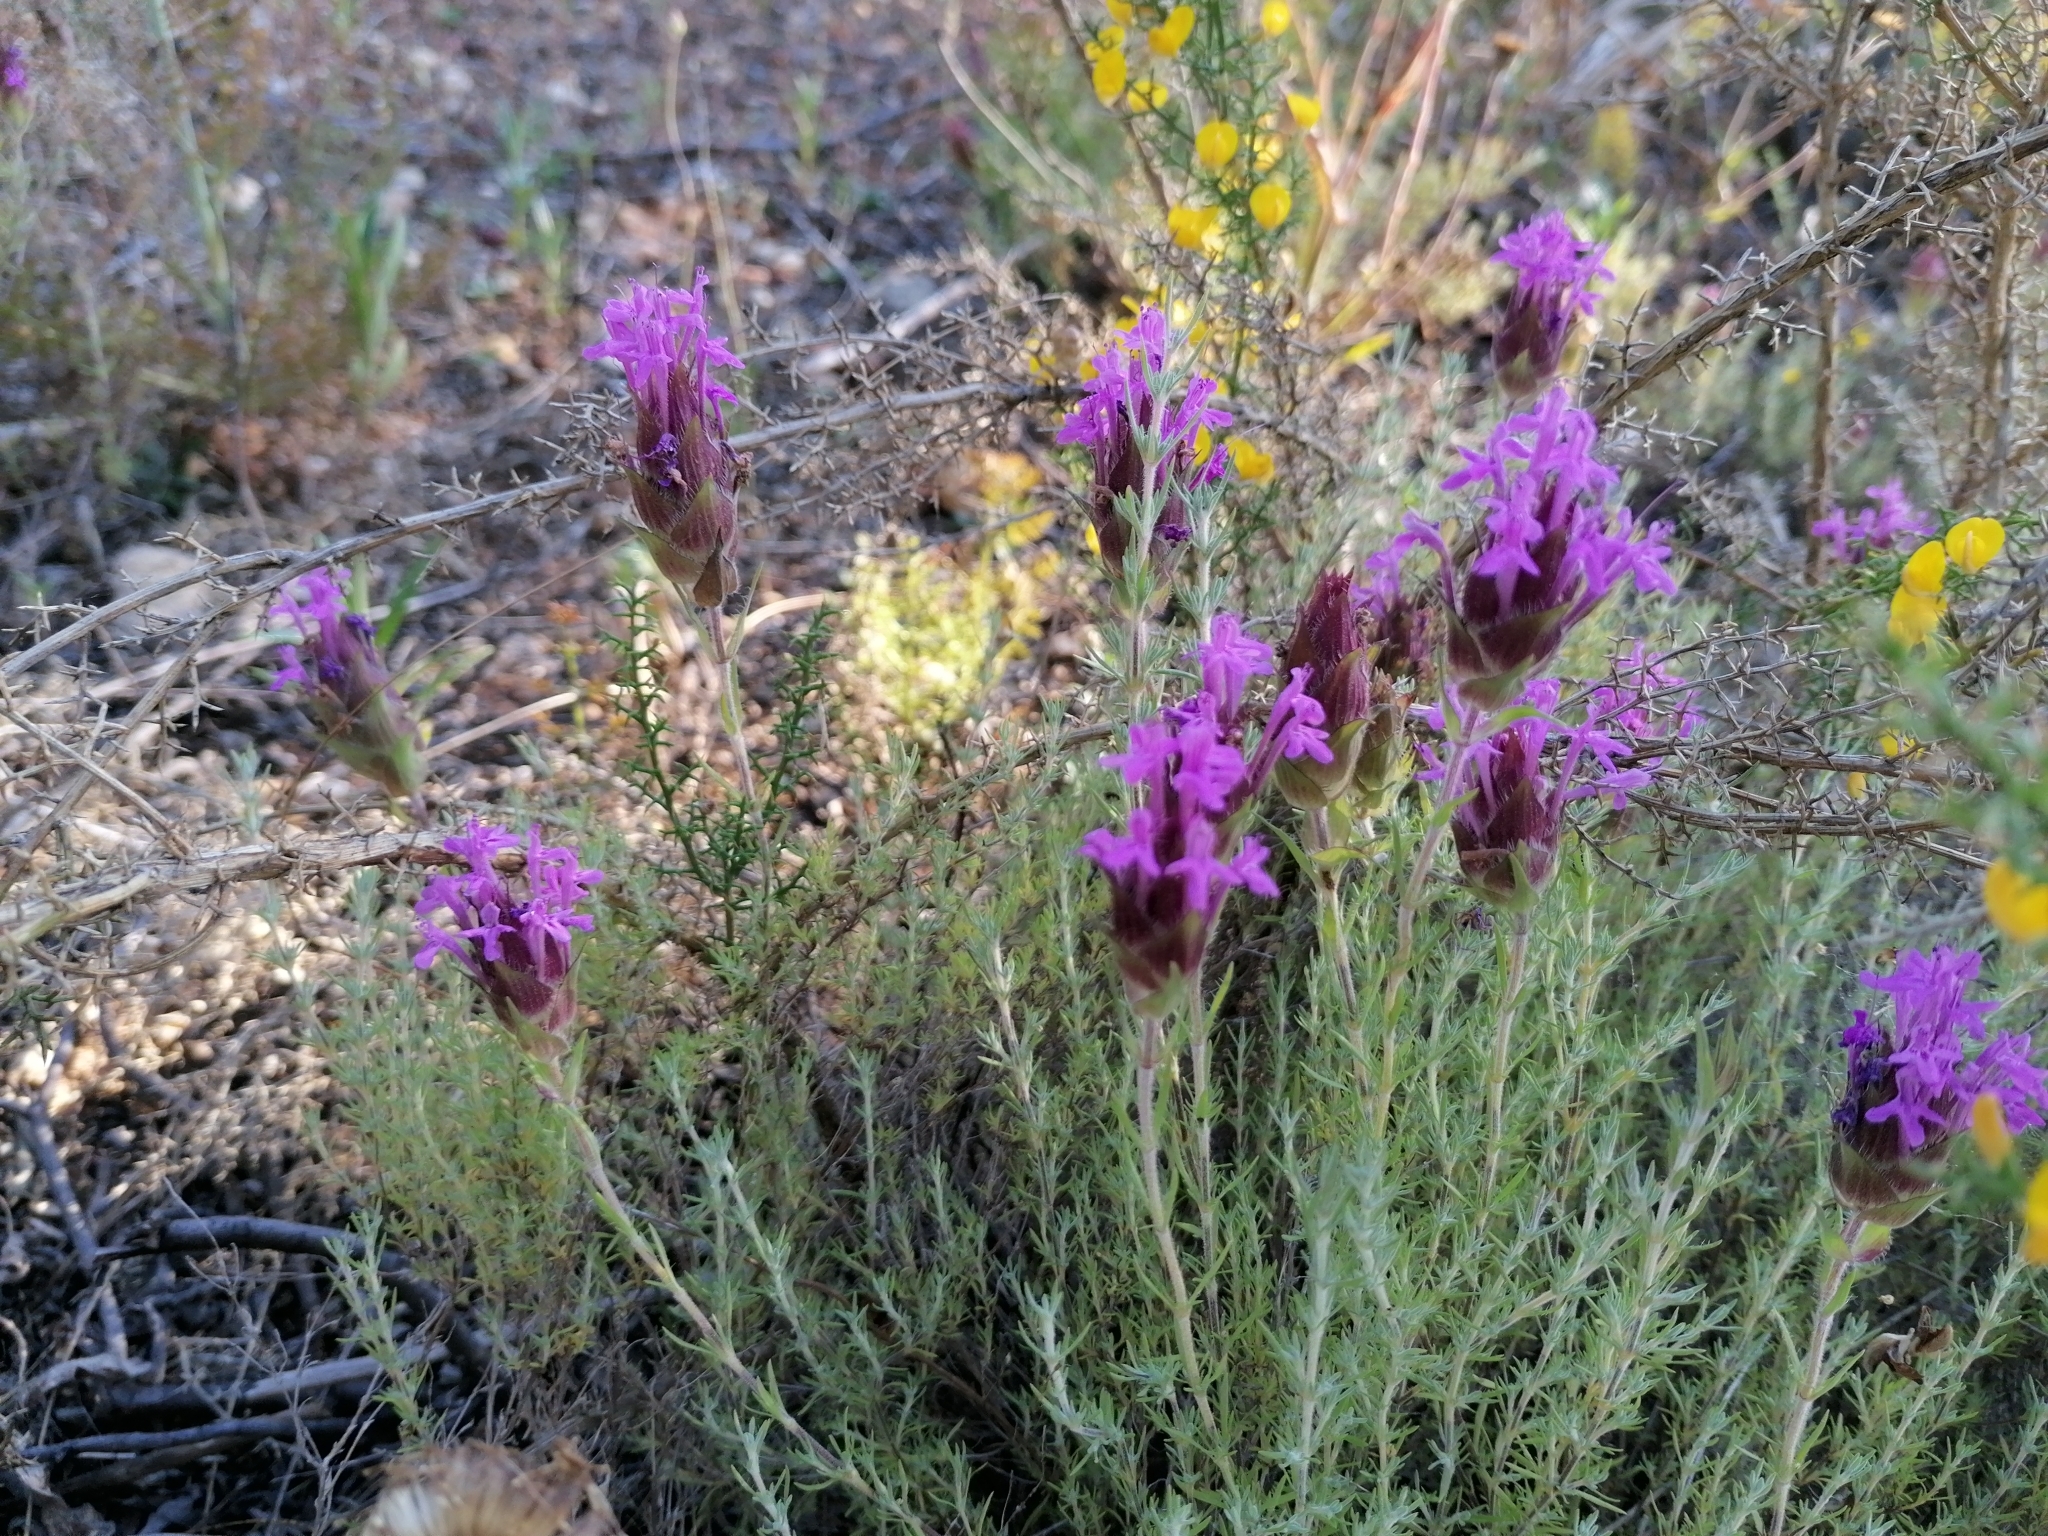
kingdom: Plantae
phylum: Tracheophyta
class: Magnoliopsida
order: Lamiales
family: Lamiaceae
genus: Thymus
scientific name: Thymus lotocephalus
